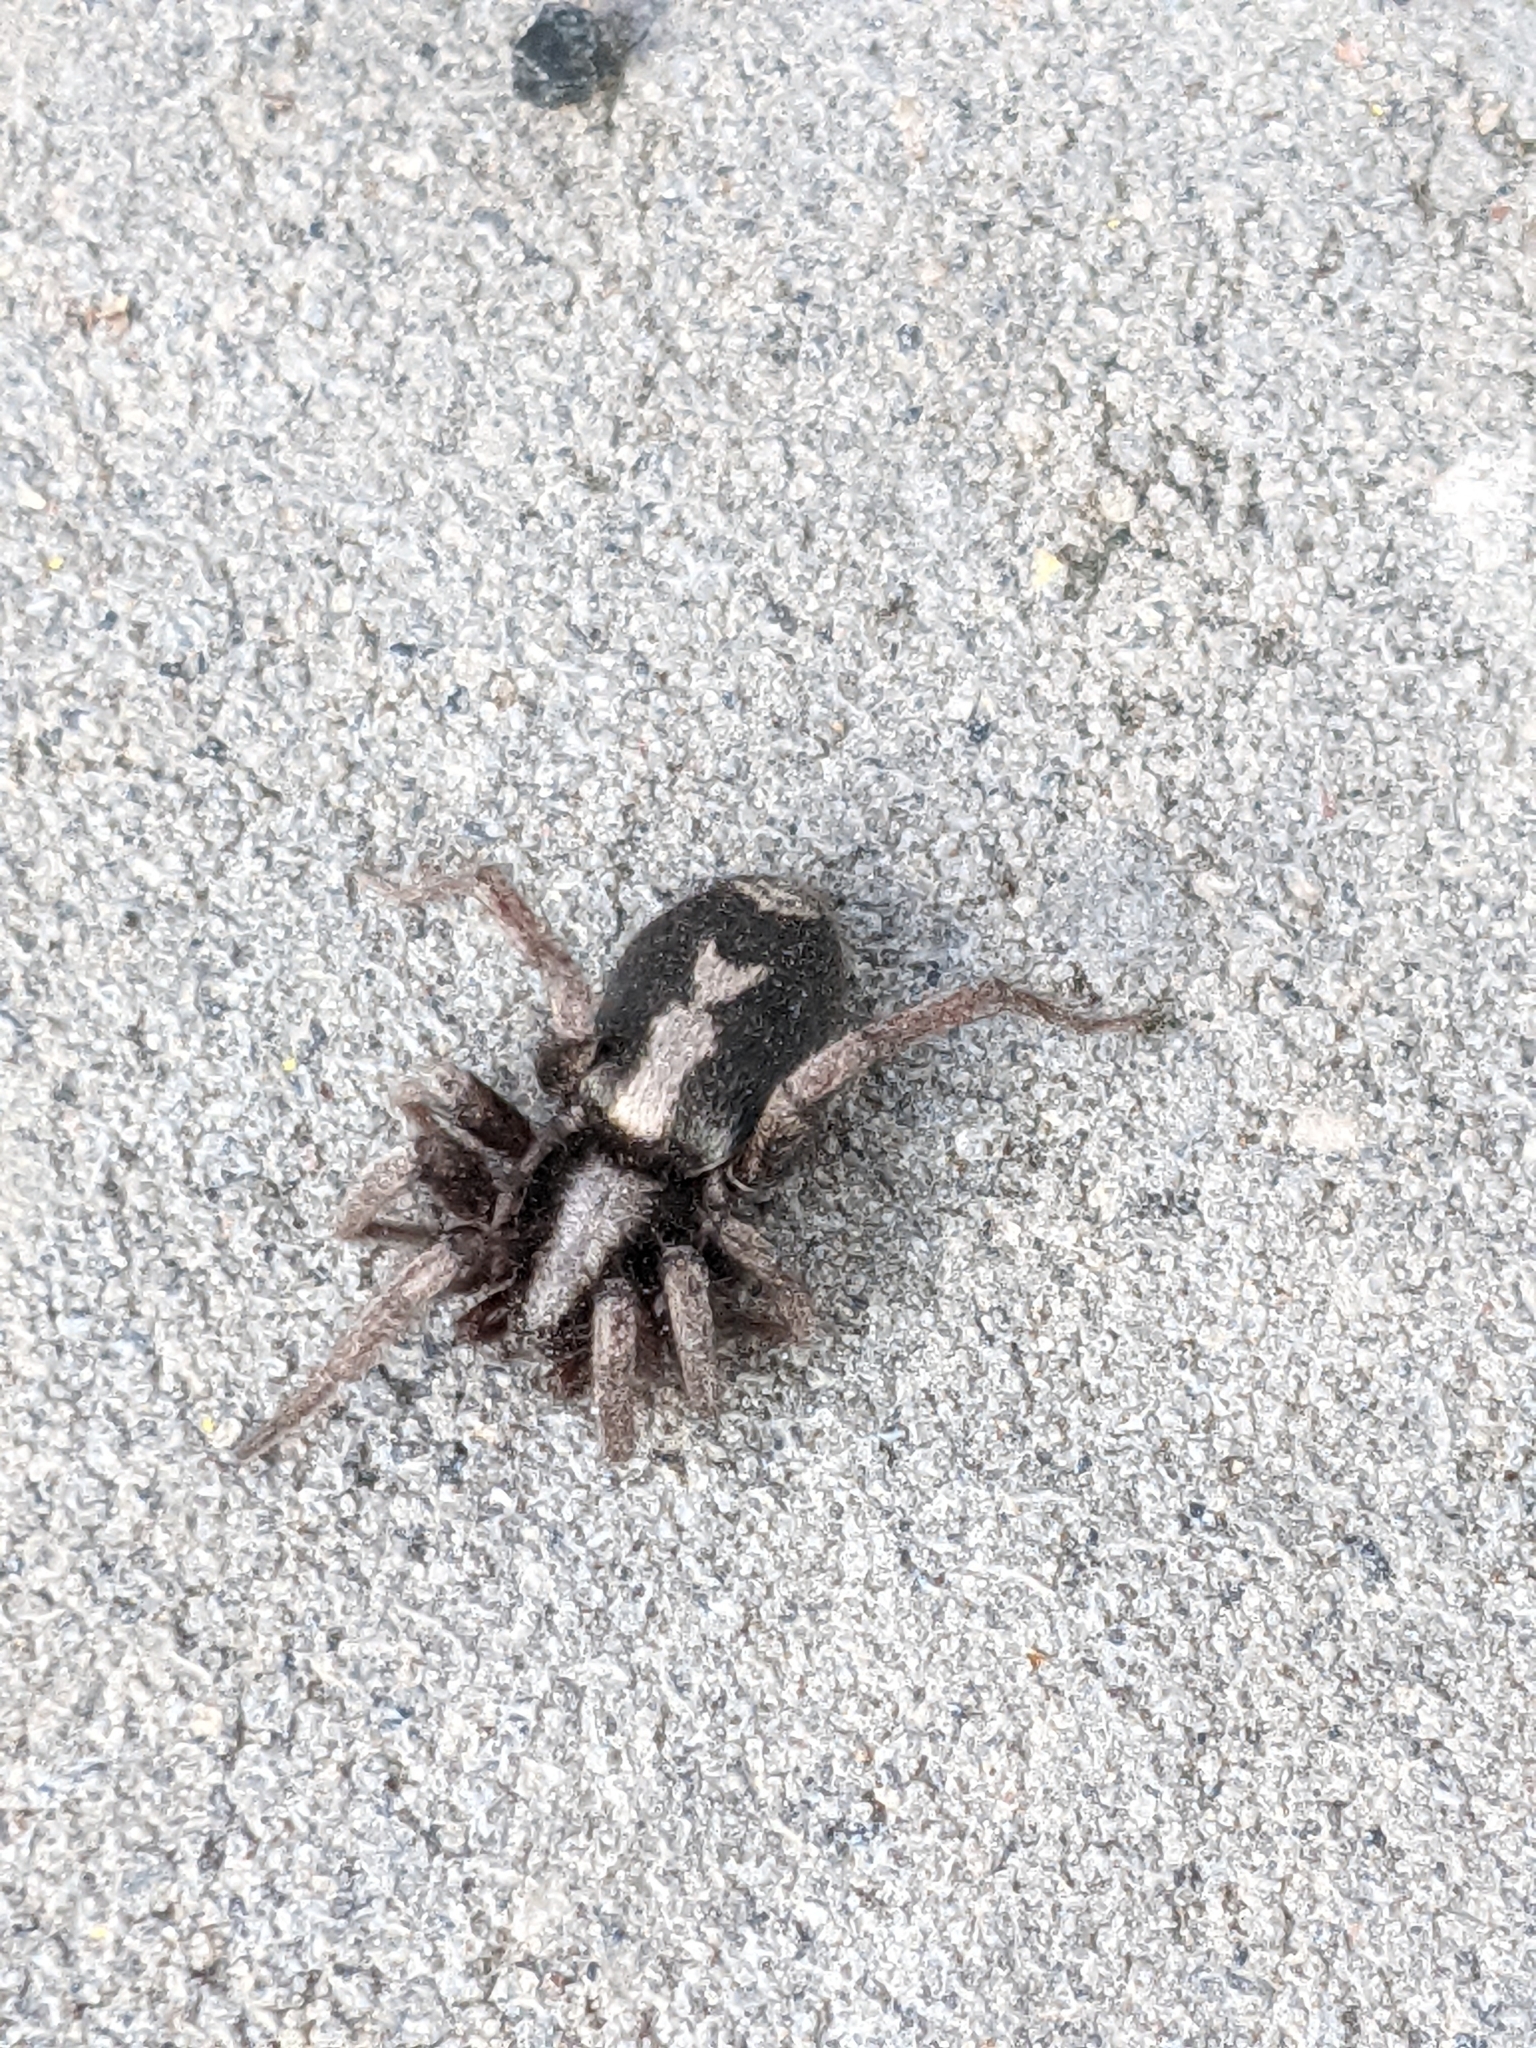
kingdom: Animalia
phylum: Arthropoda
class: Arachnida
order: Araneae
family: Gnaphosidae
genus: Herpyllus
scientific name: Herpyllus ecclesiasticus
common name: Eastern parson spider
